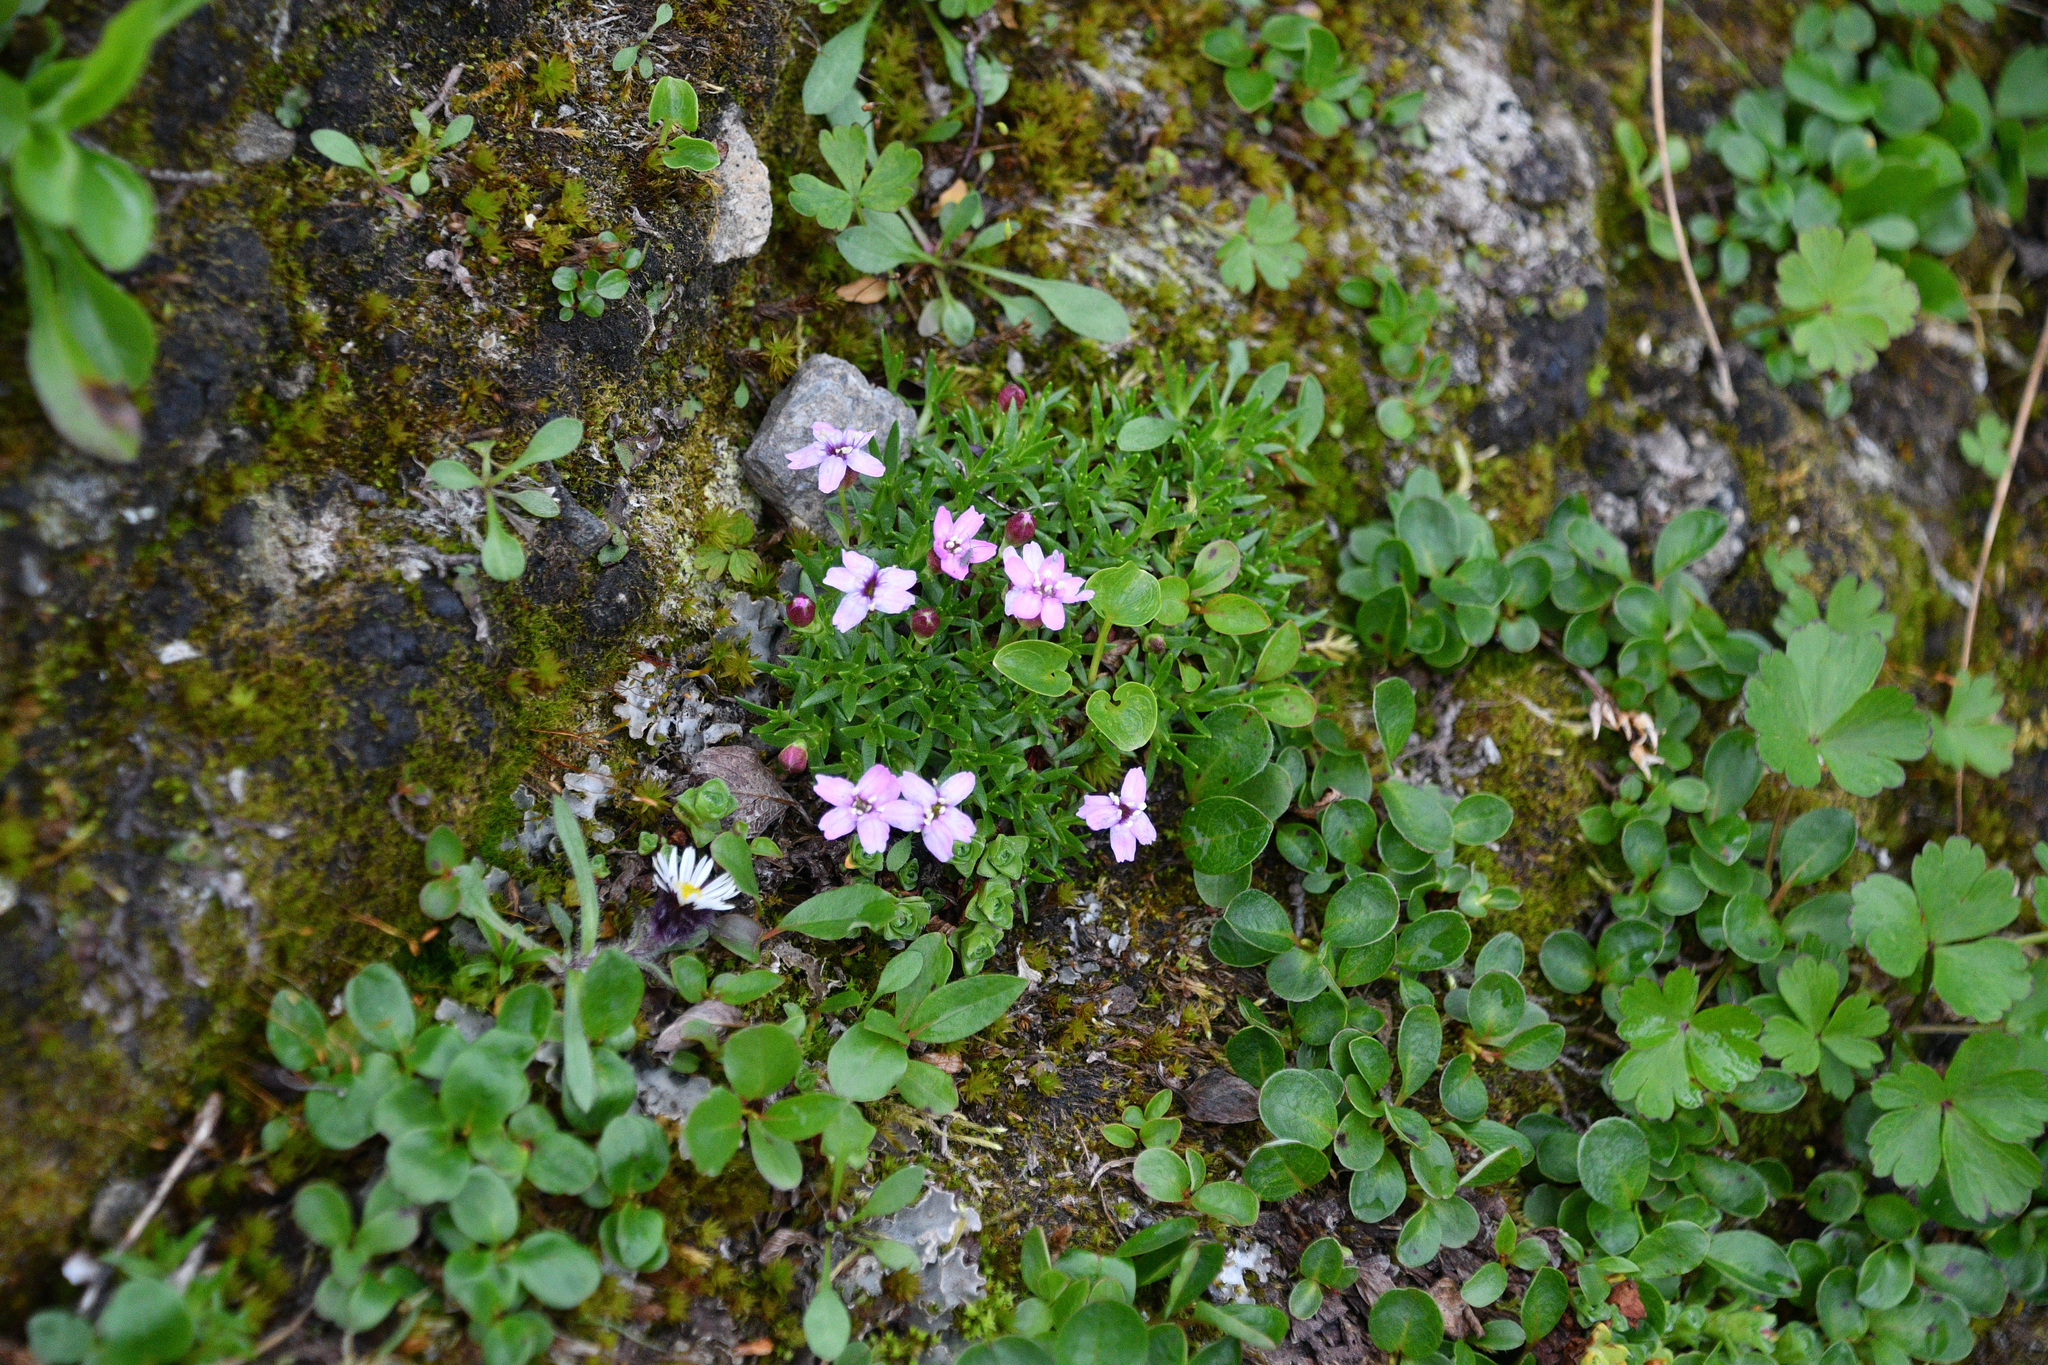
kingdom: Plantae
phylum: Tracheophyta
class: Magnoliopsida
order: Caryophyllales
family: Caryophyllaceae
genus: Silene
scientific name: Silene acaulis
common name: Moss campion
